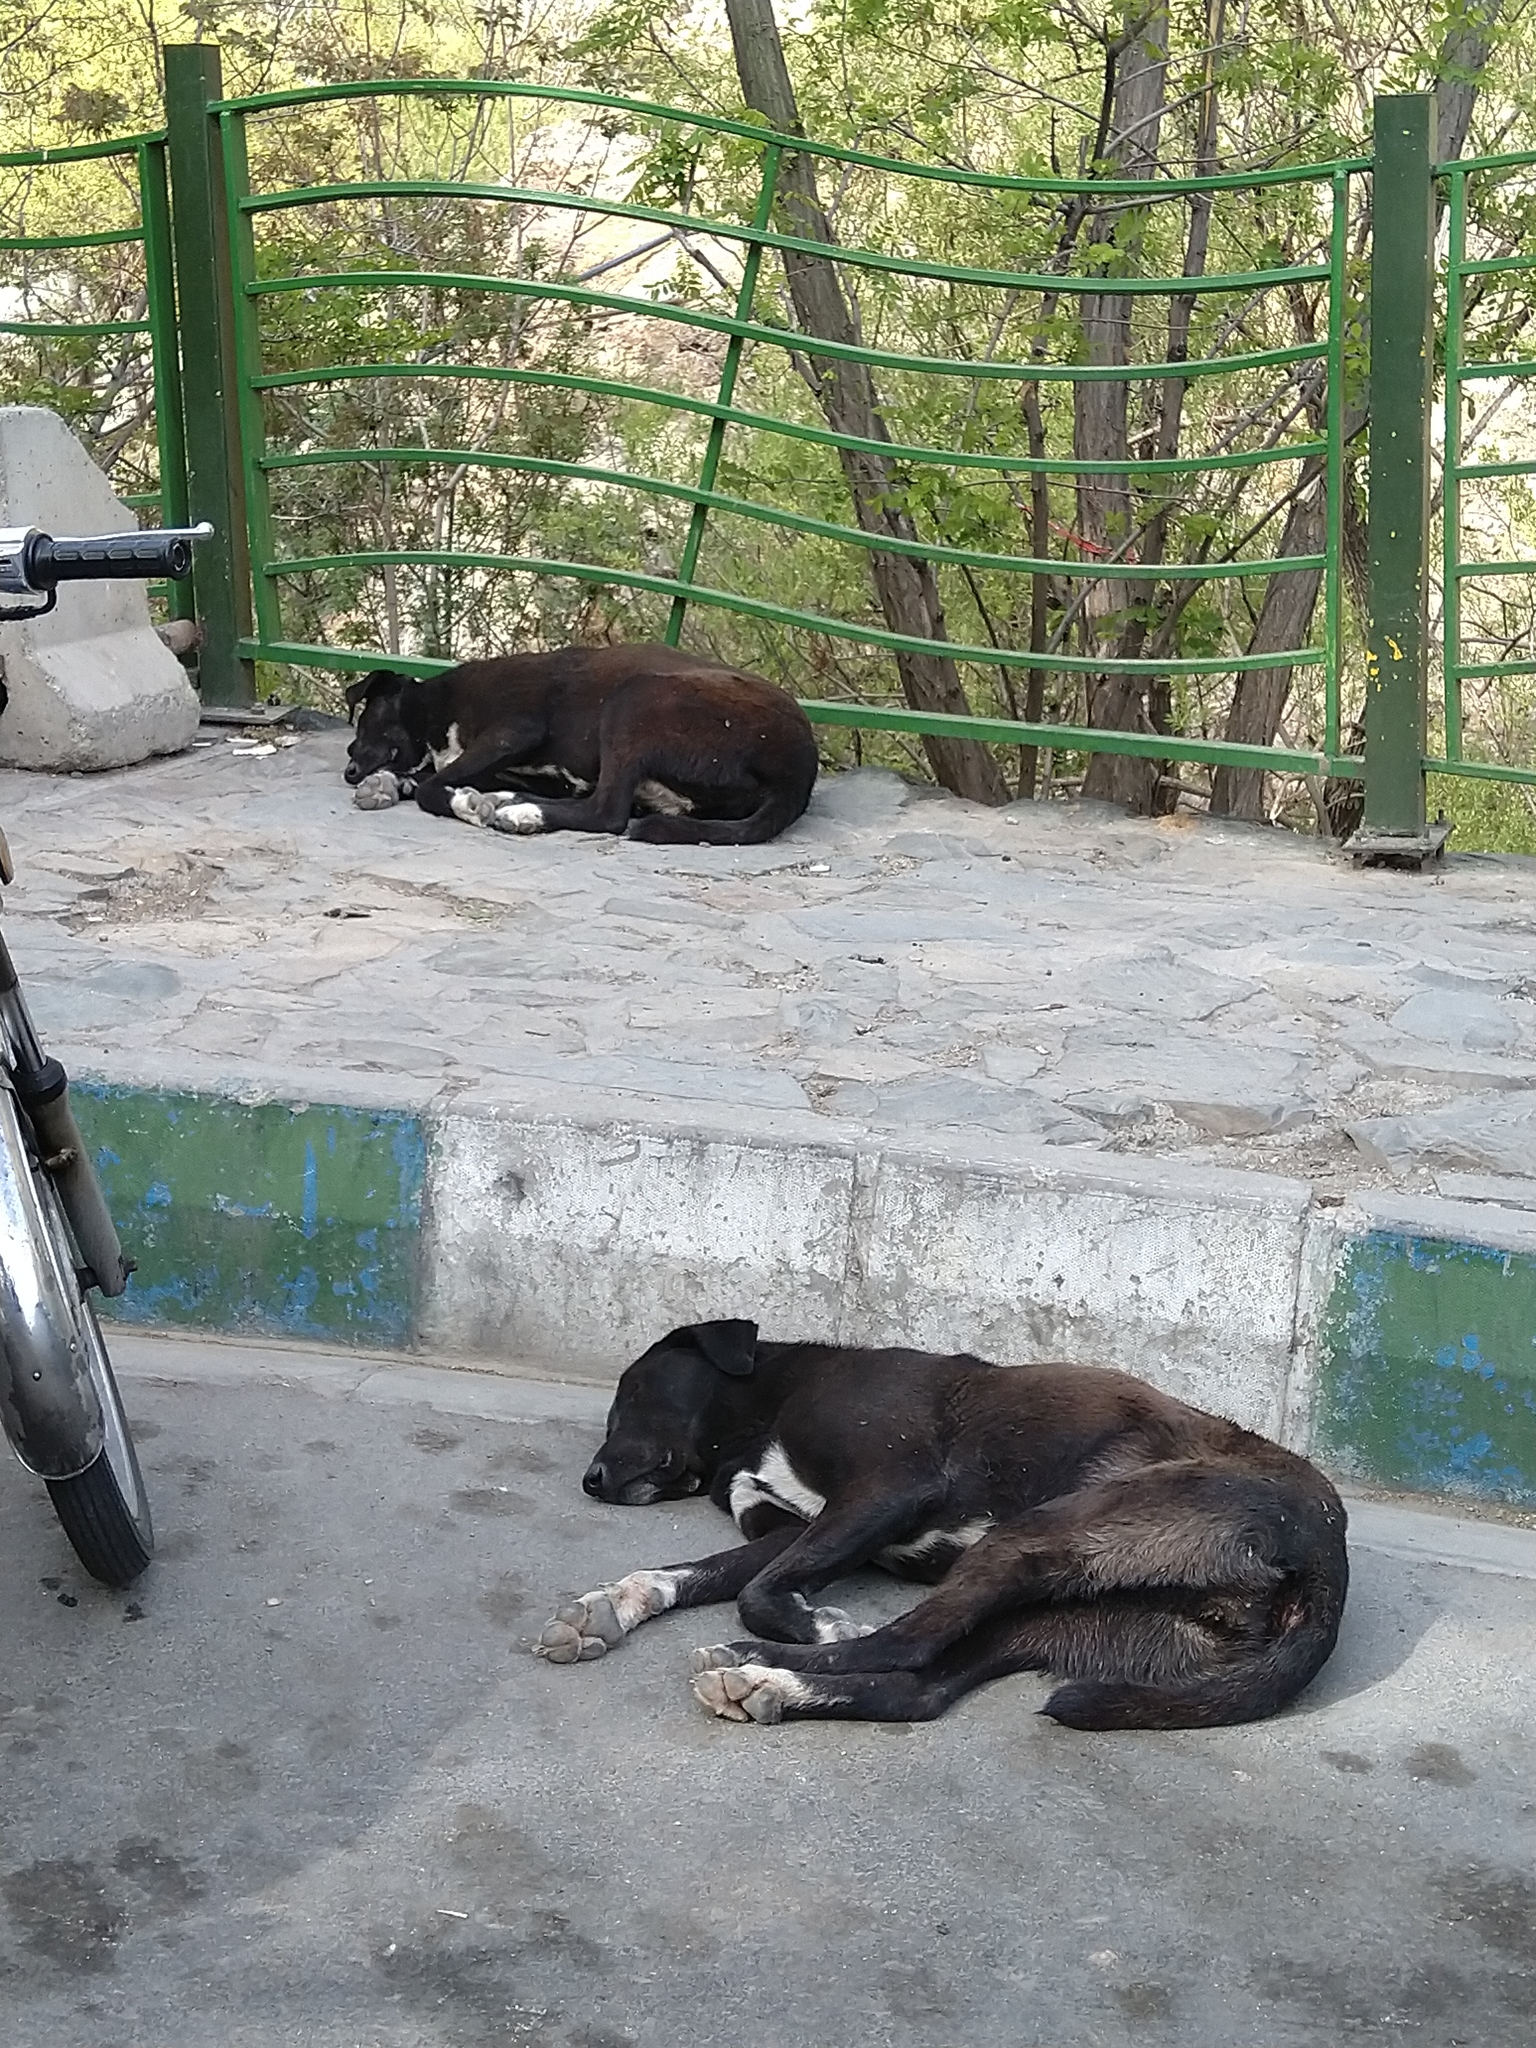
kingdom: Animalia
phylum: Chordata
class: Mammalia
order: Carnivora
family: Canidae
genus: Canis
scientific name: Canis lupus
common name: Gray wolf
